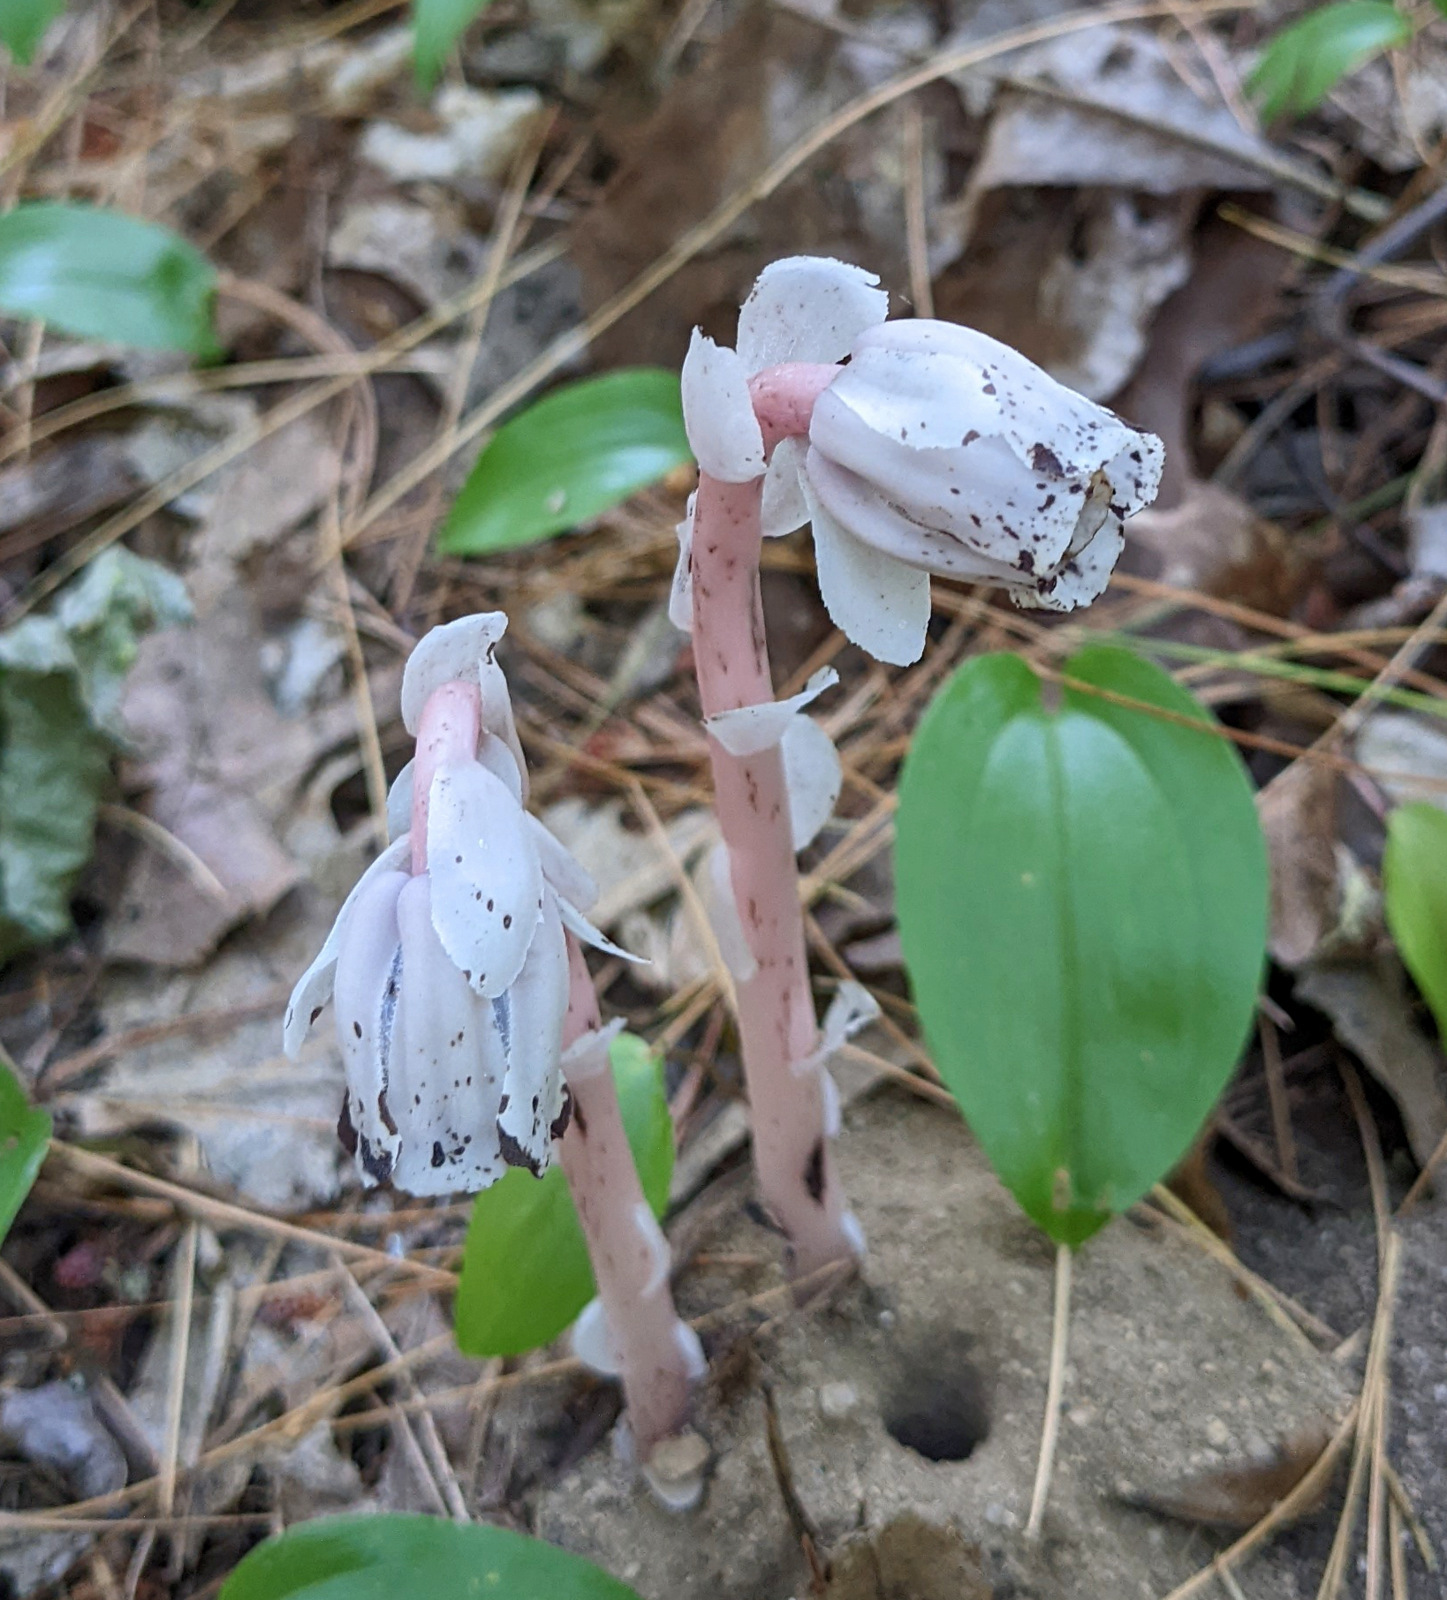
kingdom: Plantae
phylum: Tracheophyta
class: Magnoliopsida
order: Ericales
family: Ericaceae
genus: Monotropa
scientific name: Monotropa uniflora
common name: Convulsion root
